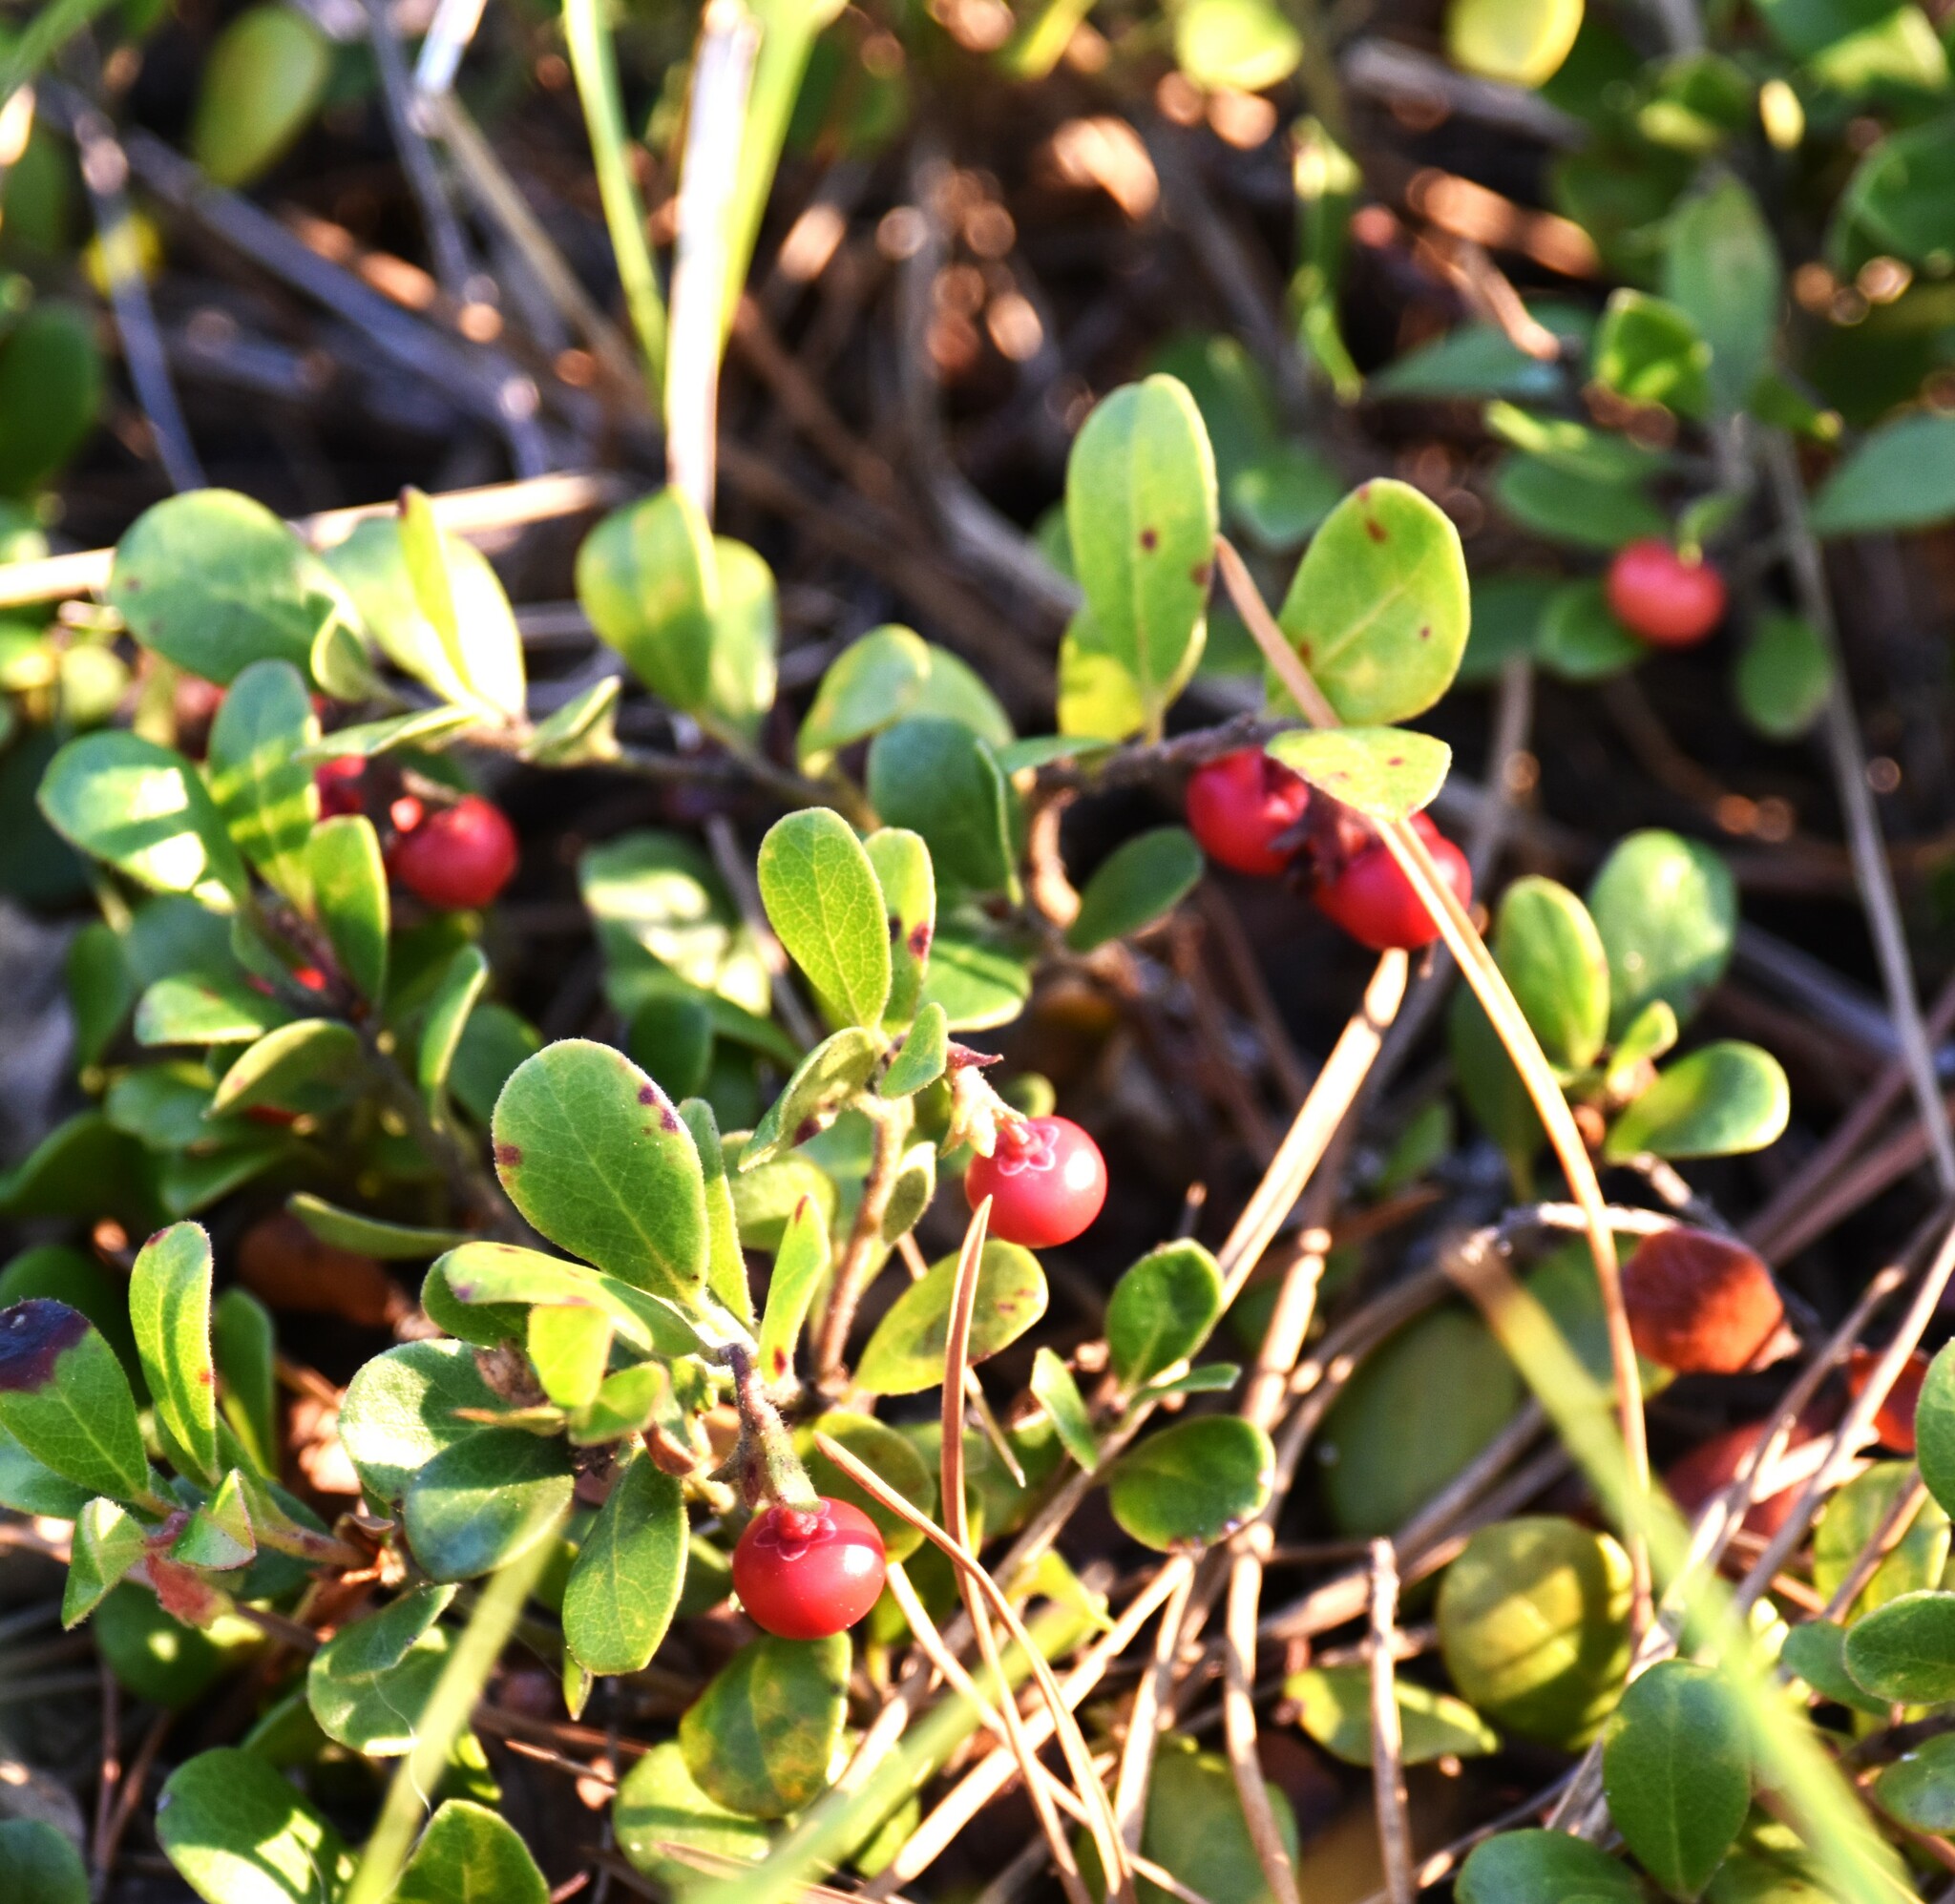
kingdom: Plantae
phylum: Tracheophyta
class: Magnoliopsida
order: Ericales
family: Ericaceae
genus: Arctostaphylos
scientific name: Arctostaphylos uva-ursi
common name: Bearberry
